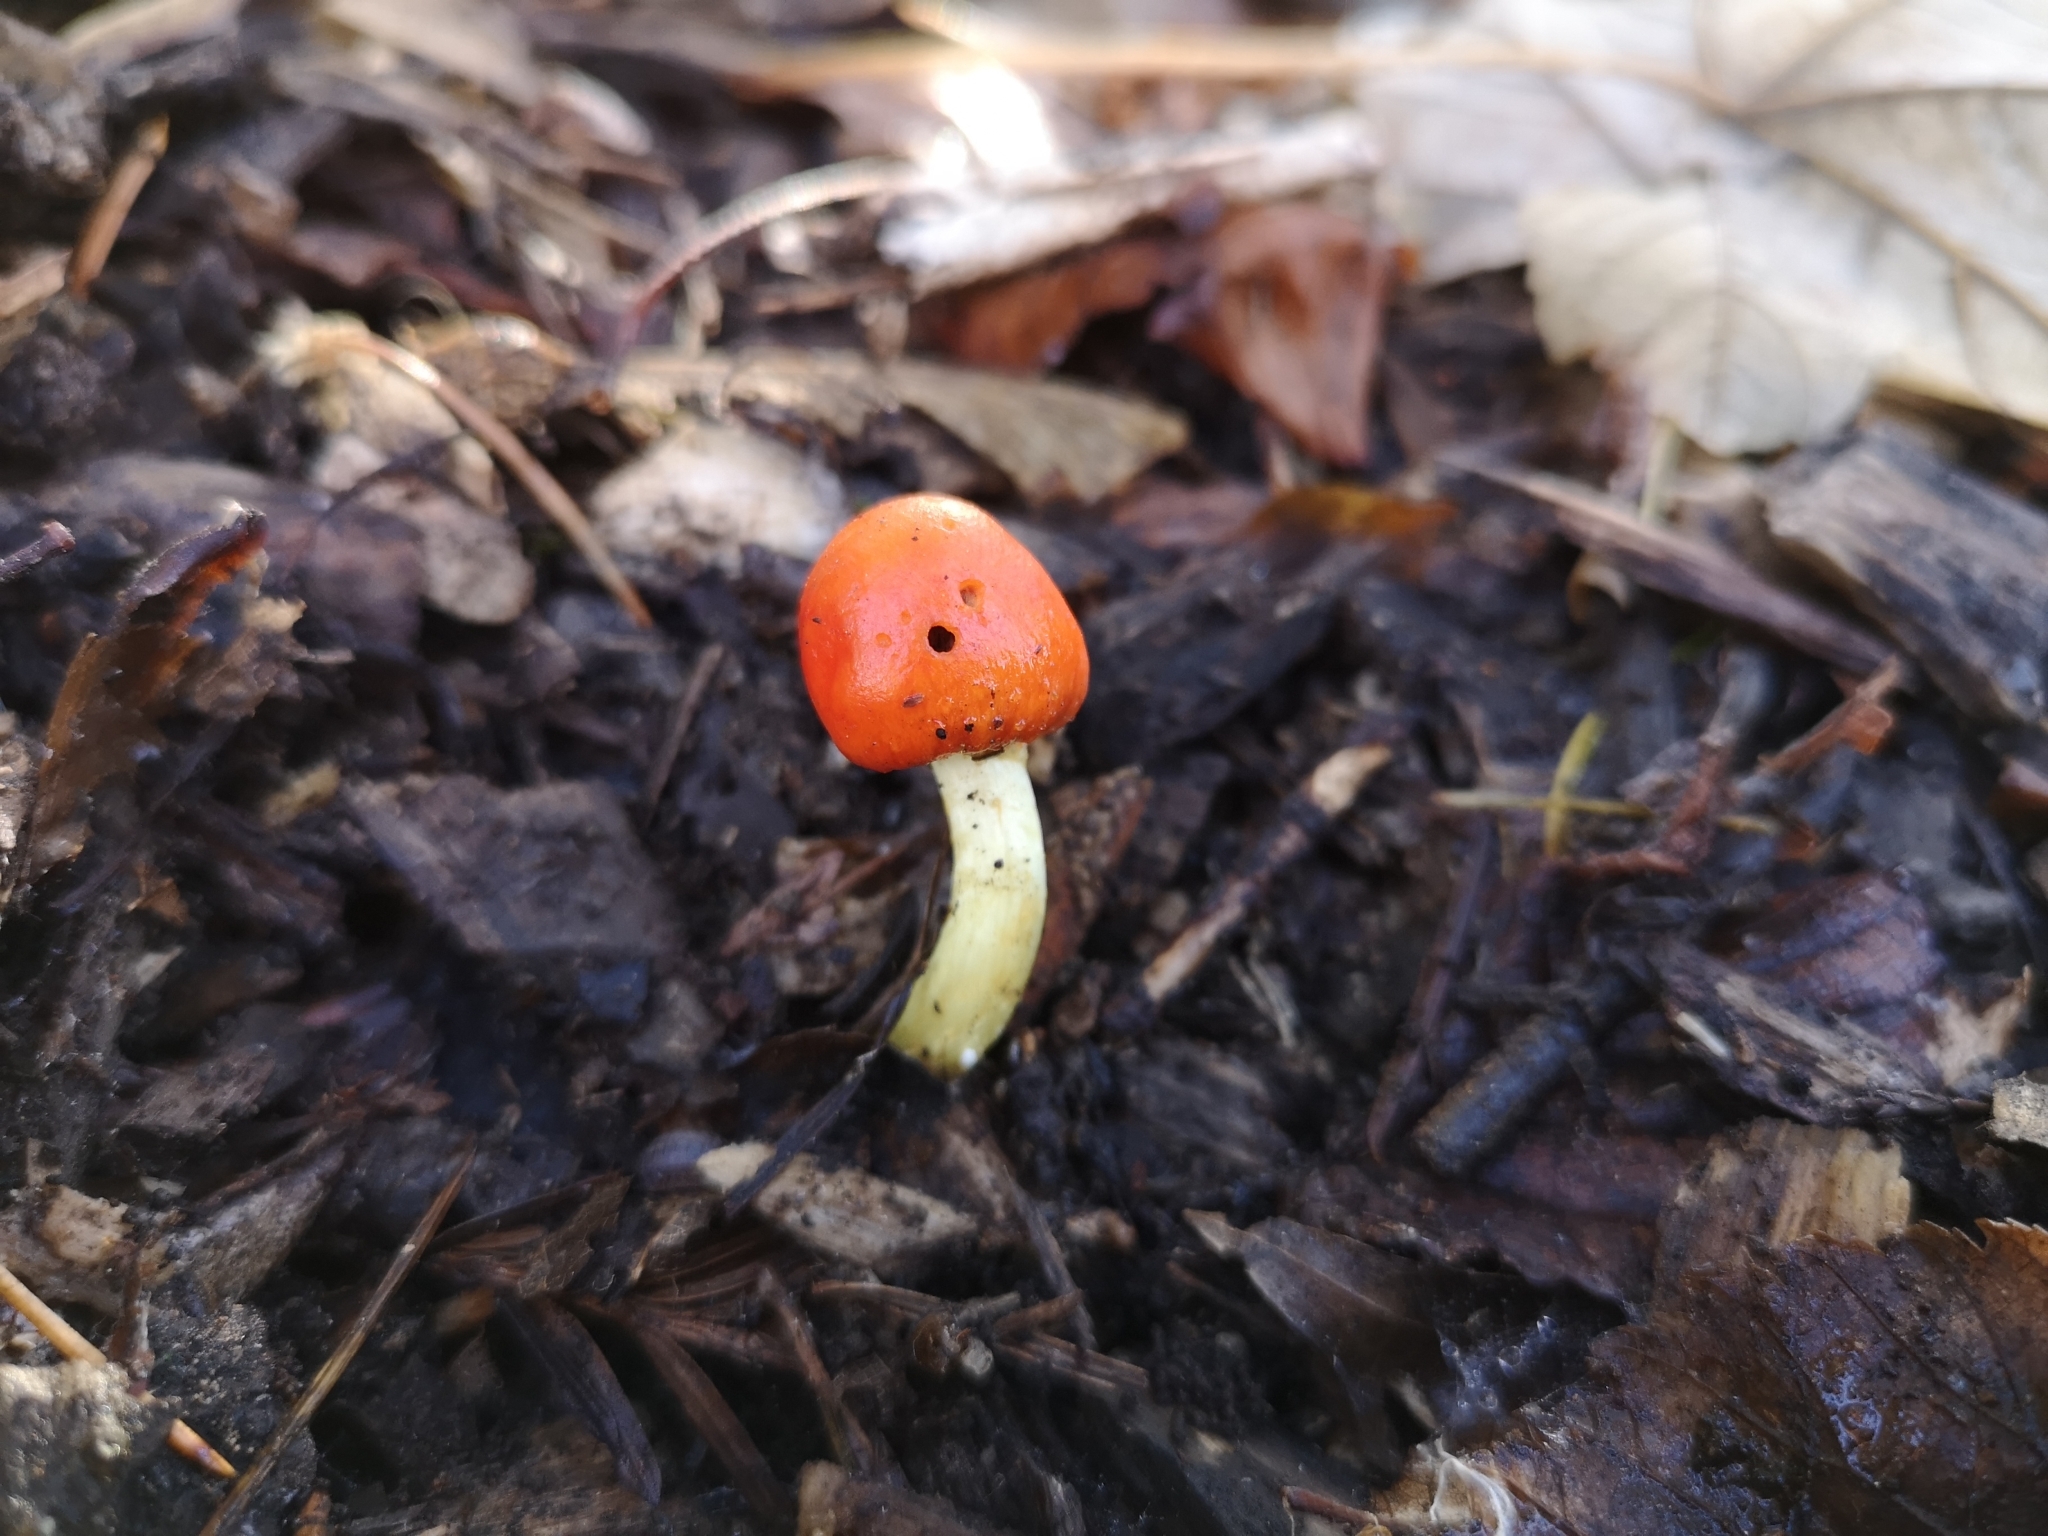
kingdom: Fungi
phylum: Basidiomycota
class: Agaricomycetes
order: Agaricales
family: Strophariaceae
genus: Leratiomyces
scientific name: Leratiomyces erythrocephalus
